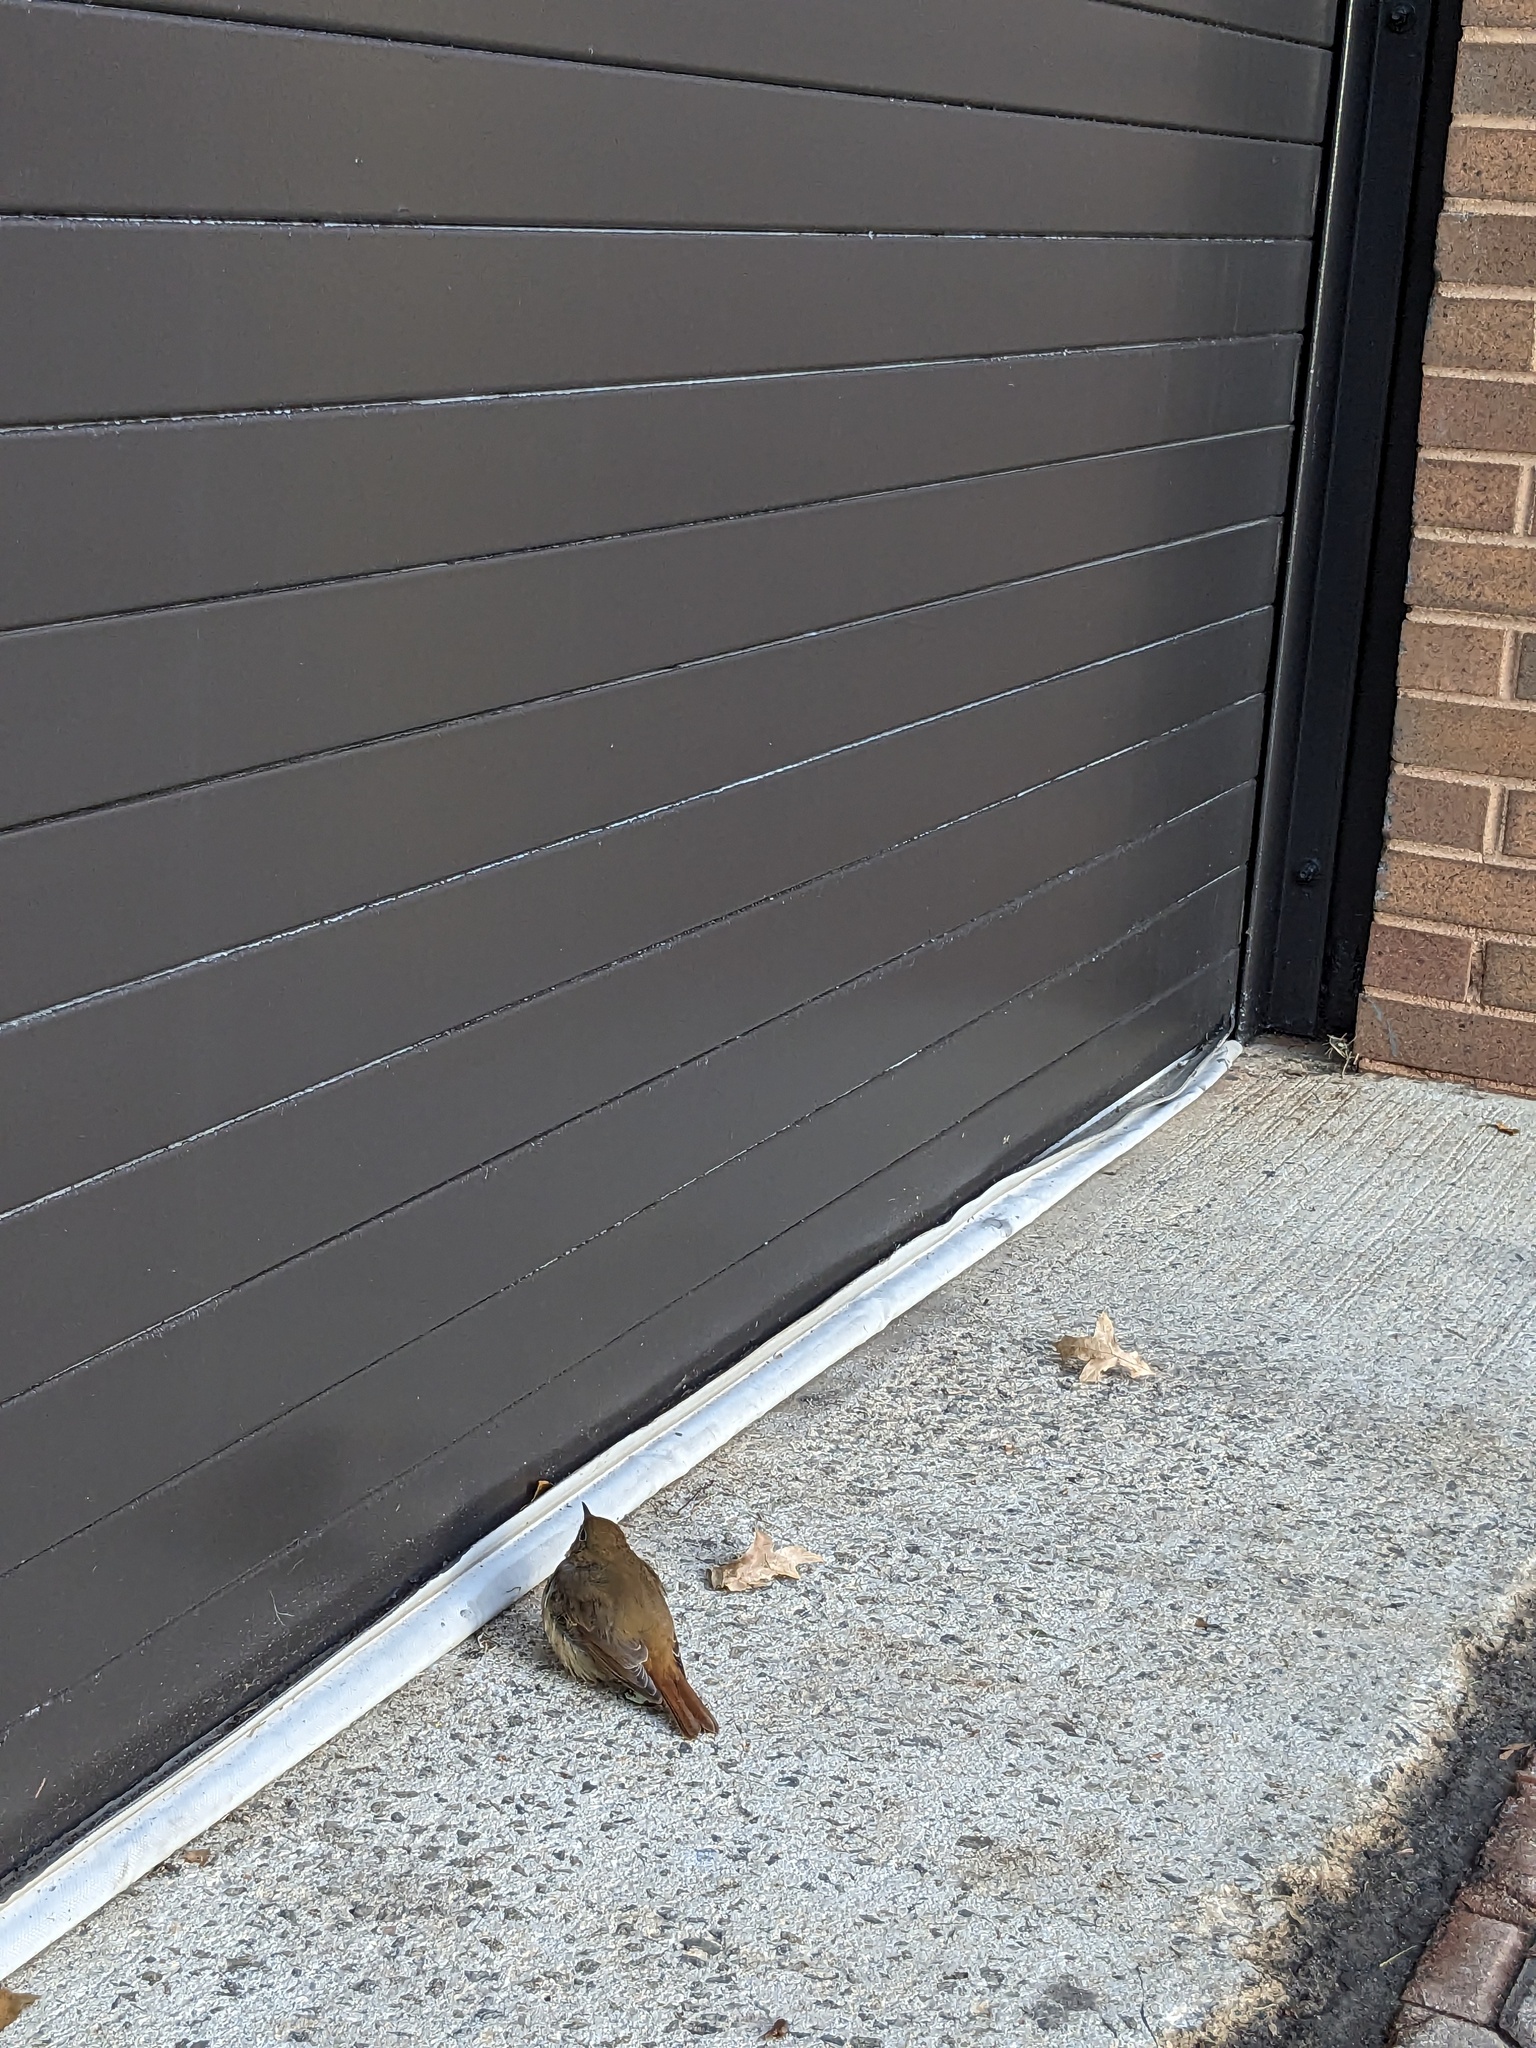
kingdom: Animalia
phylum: Chordata
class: Aves
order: Passeriformes
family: Turdidae
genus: Catharus
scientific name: Catharus guttatus
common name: Hermit thrush
